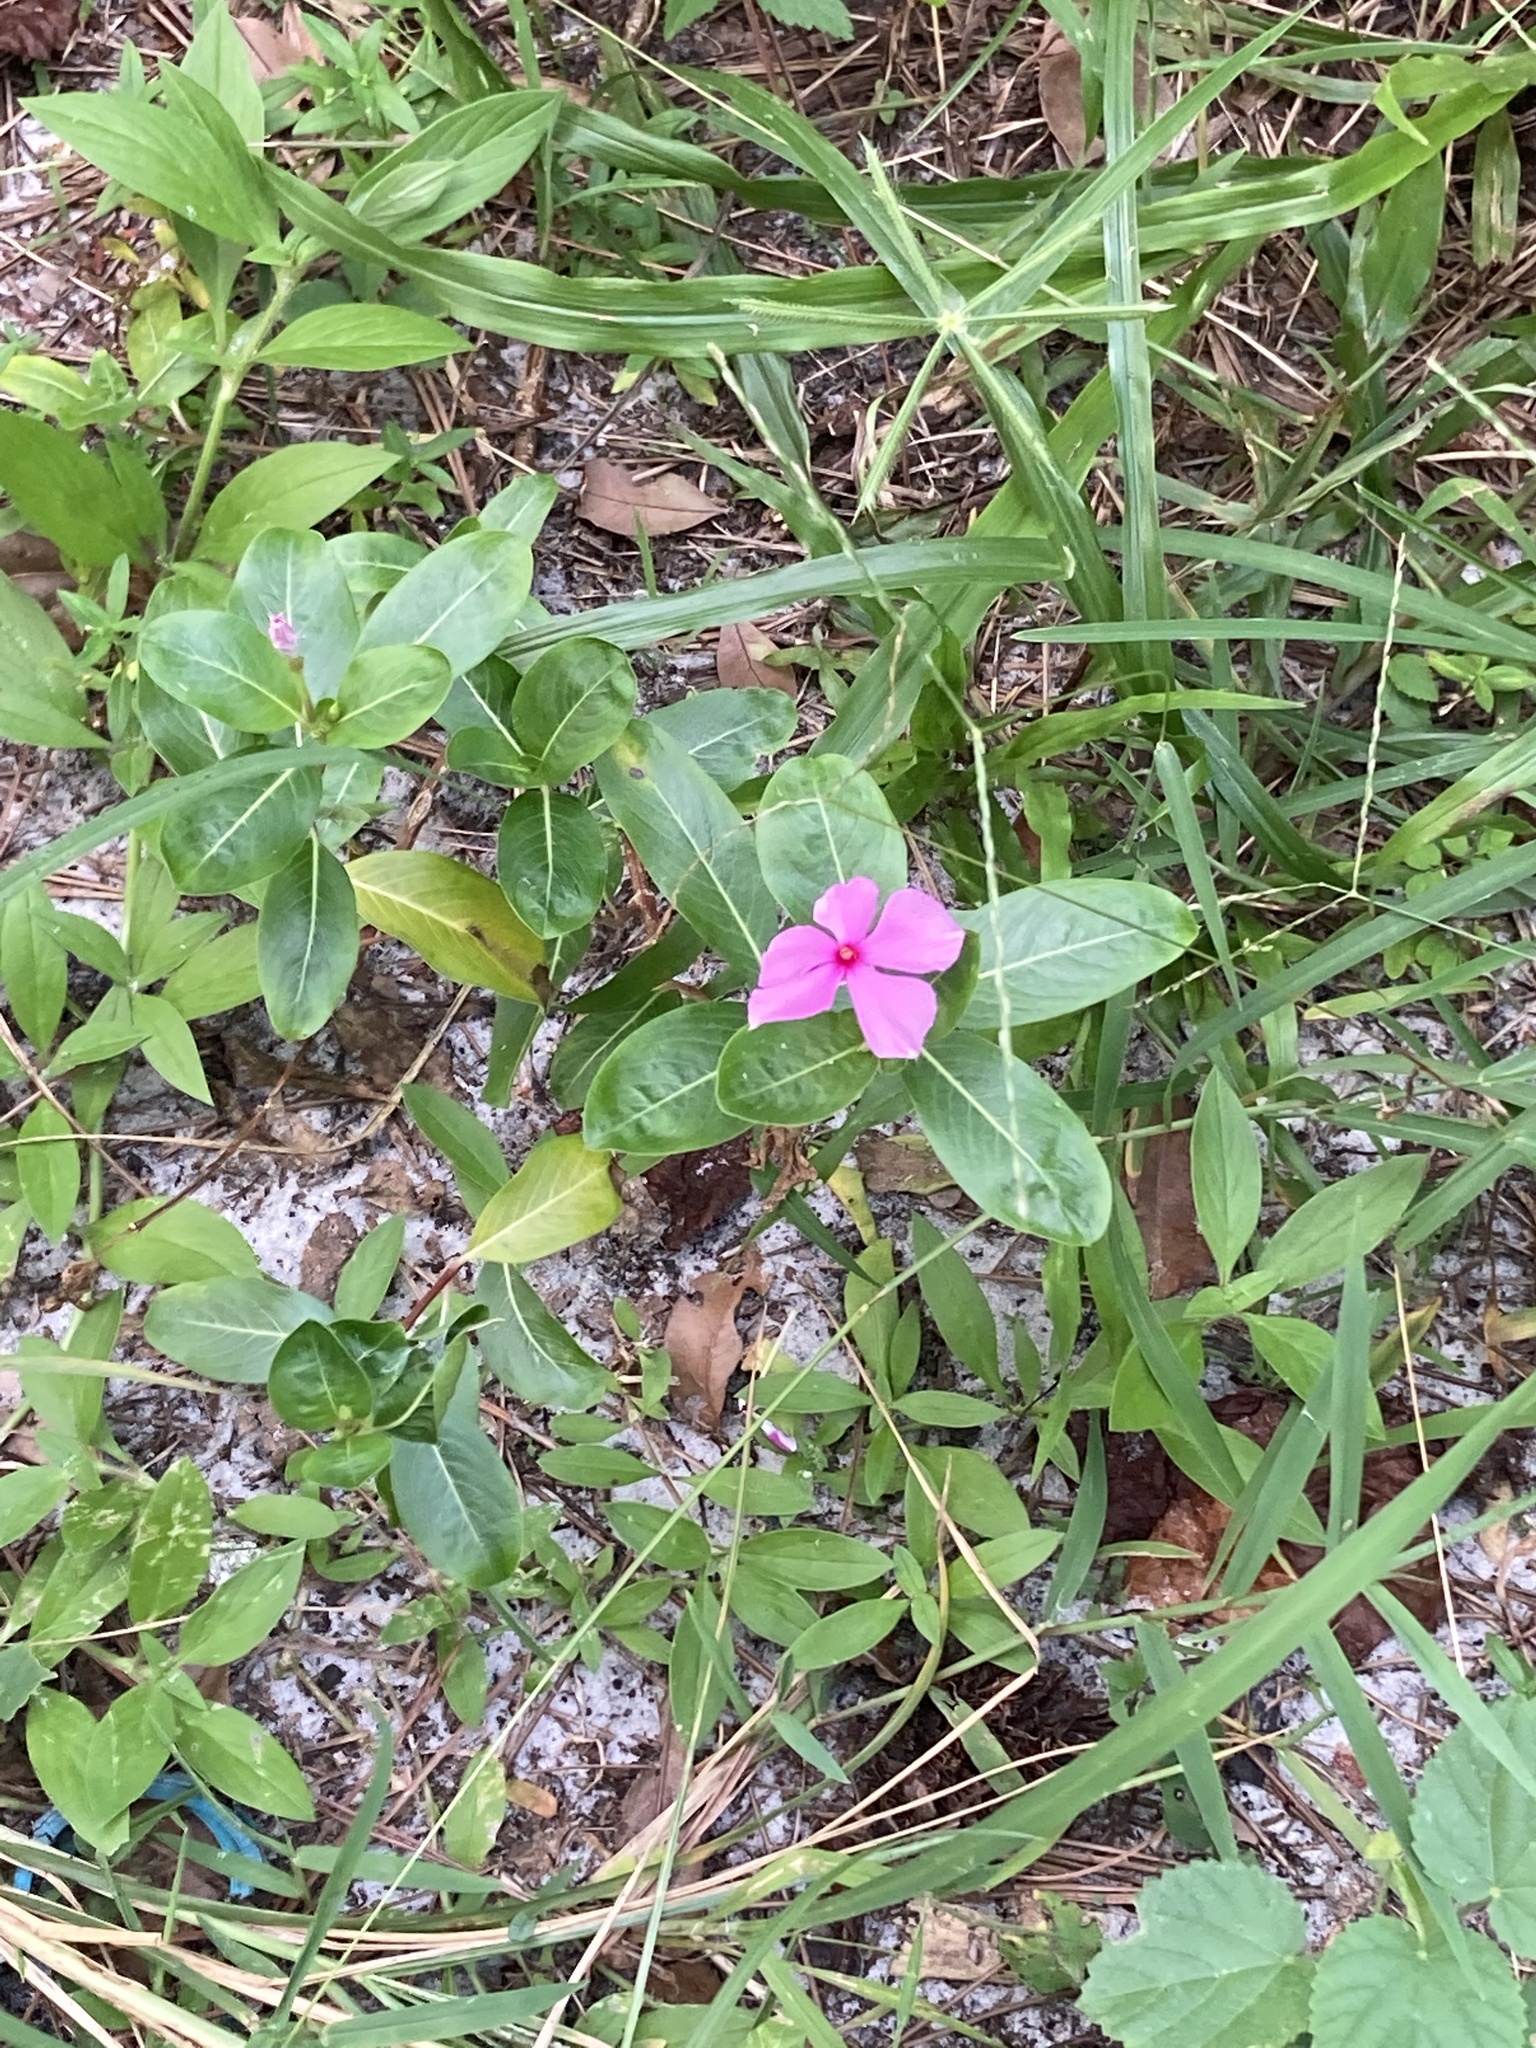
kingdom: Plantae
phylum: Tracheophyta
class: Magnoliopsida
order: Gentianales
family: Apocynaceae
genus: Catharanthus
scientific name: Catharanthus roseus
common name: Madagascar periwinkle
